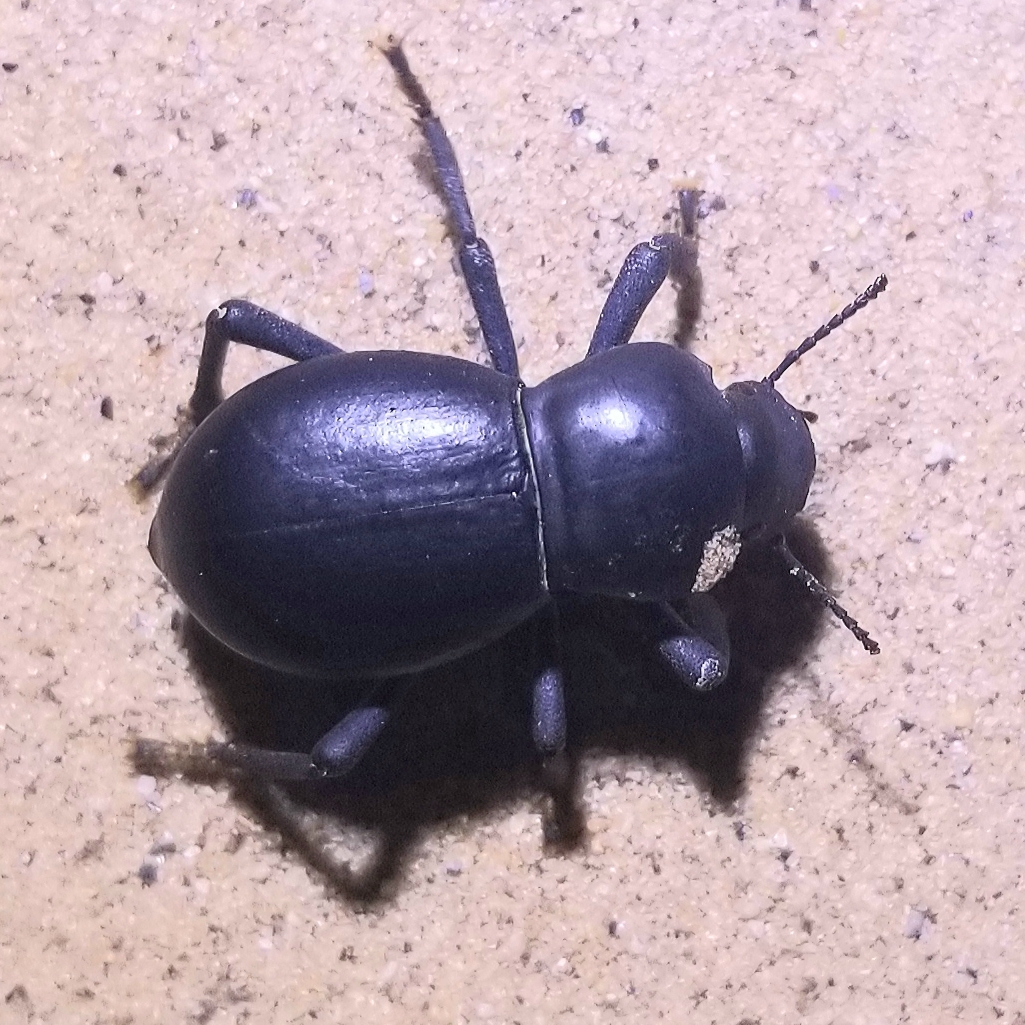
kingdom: Animalia
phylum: Arthropoda
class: Insecta
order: Coleoptera
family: Tenebrionidae
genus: Asbolus
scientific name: Asbolus laevis
